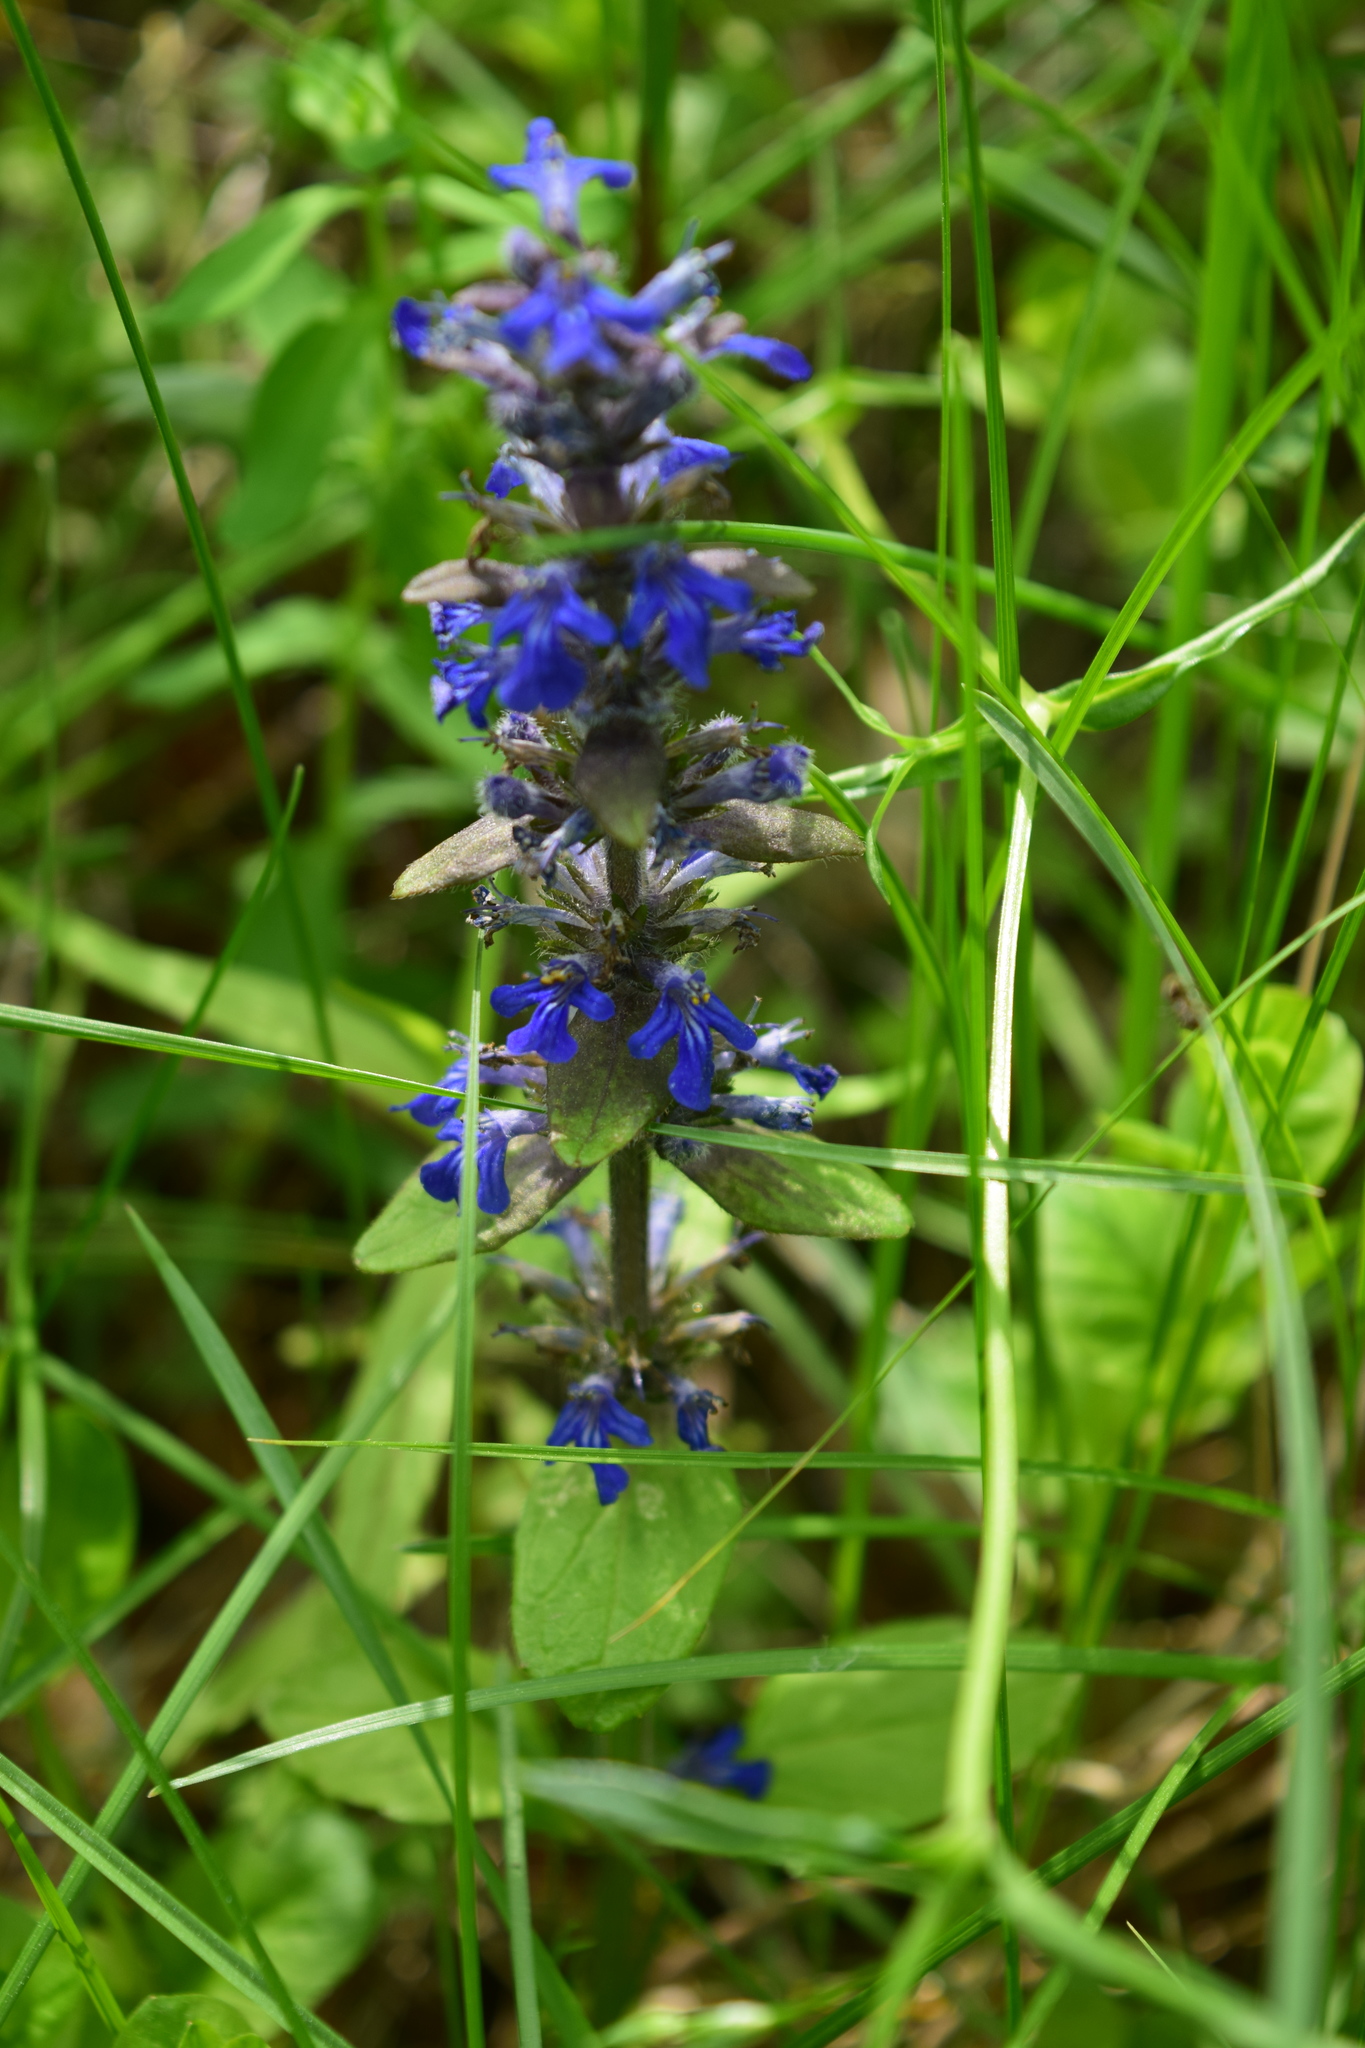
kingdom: Plantae
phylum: Tracheophyta
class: Magnoliopsida
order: Lamiales
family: Lamiaceae
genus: Ajuga
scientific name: Ajuga reptans
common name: Bugle
